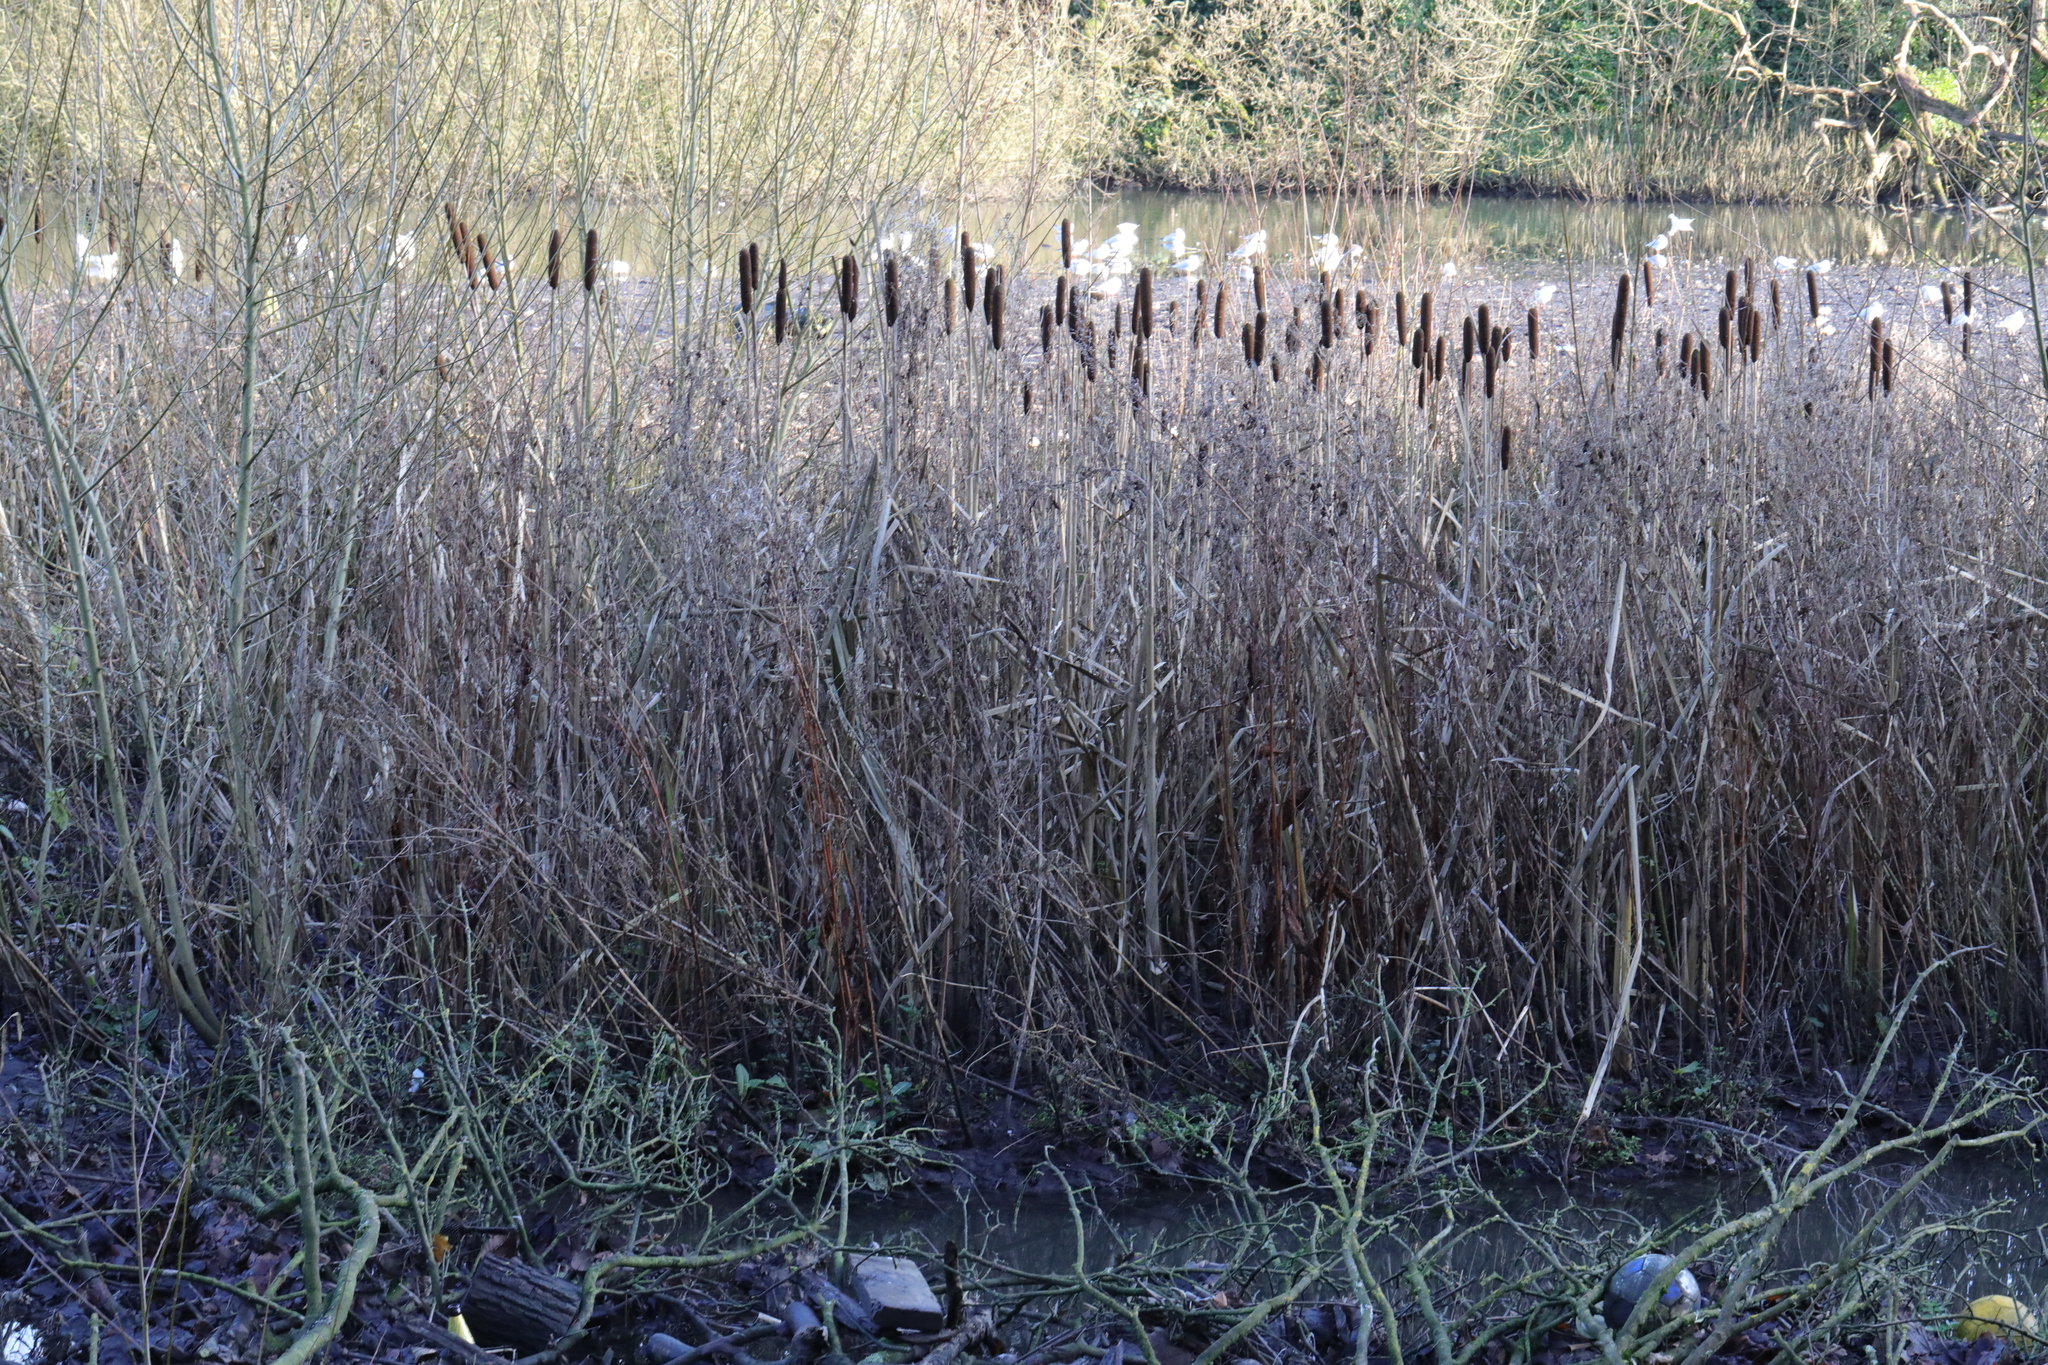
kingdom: Plantae
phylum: Tracheophyta
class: Liliopsida
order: Poales
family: Typhaceae
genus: Typha
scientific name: Typha latifolia
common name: Broadleaf cattail
